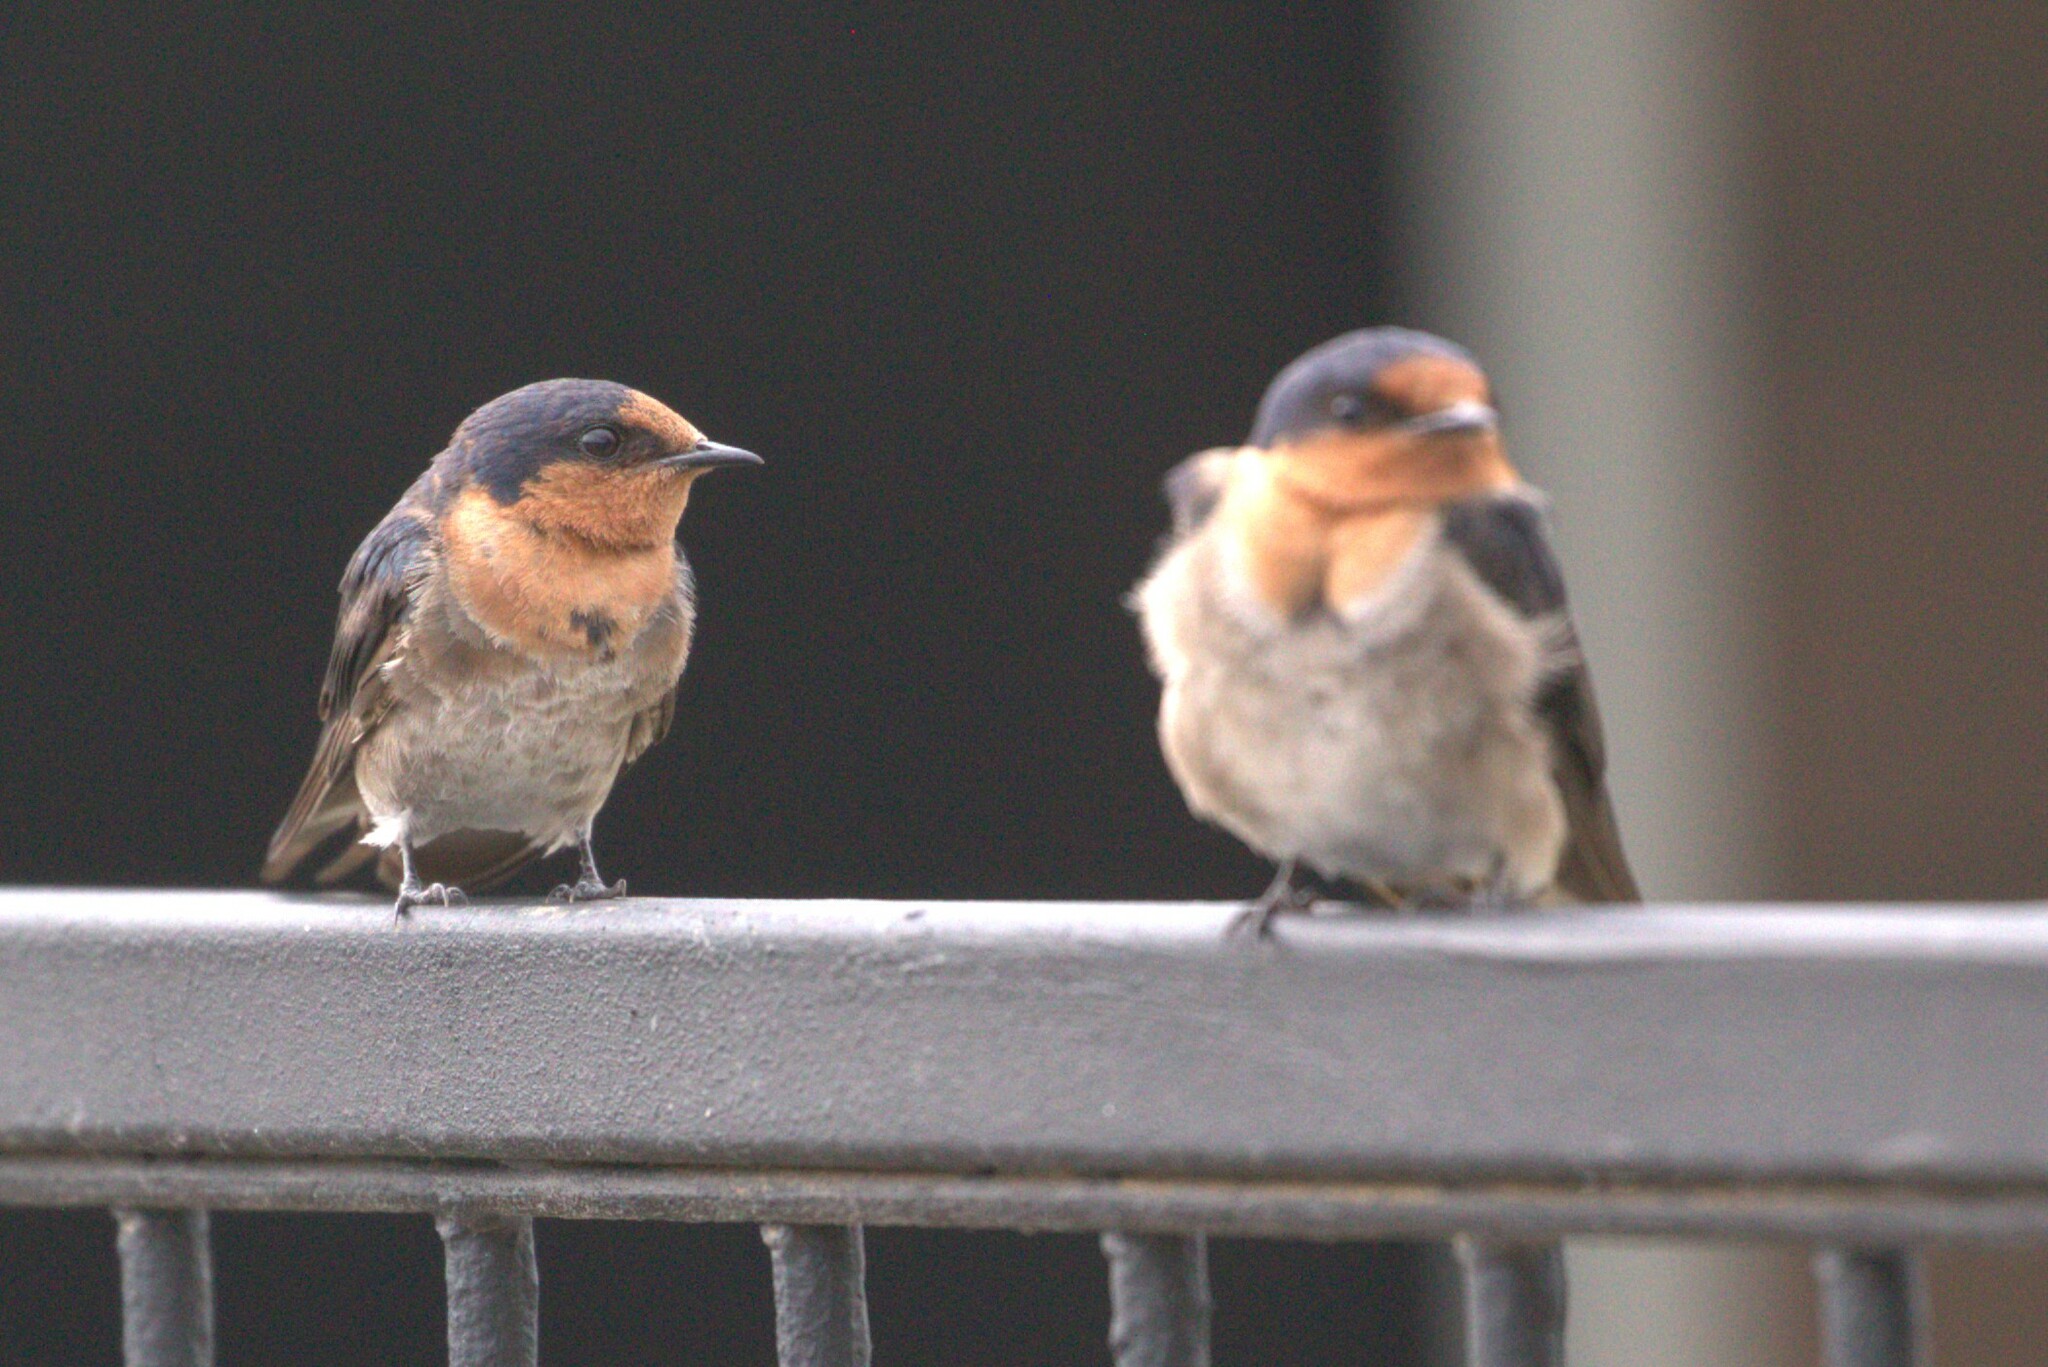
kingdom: Animalia
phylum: Chordata
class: Aves
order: Passeriformes
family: Hirundinidae
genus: Hirundo
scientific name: Hirundo neoxena
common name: Welcome swallow
